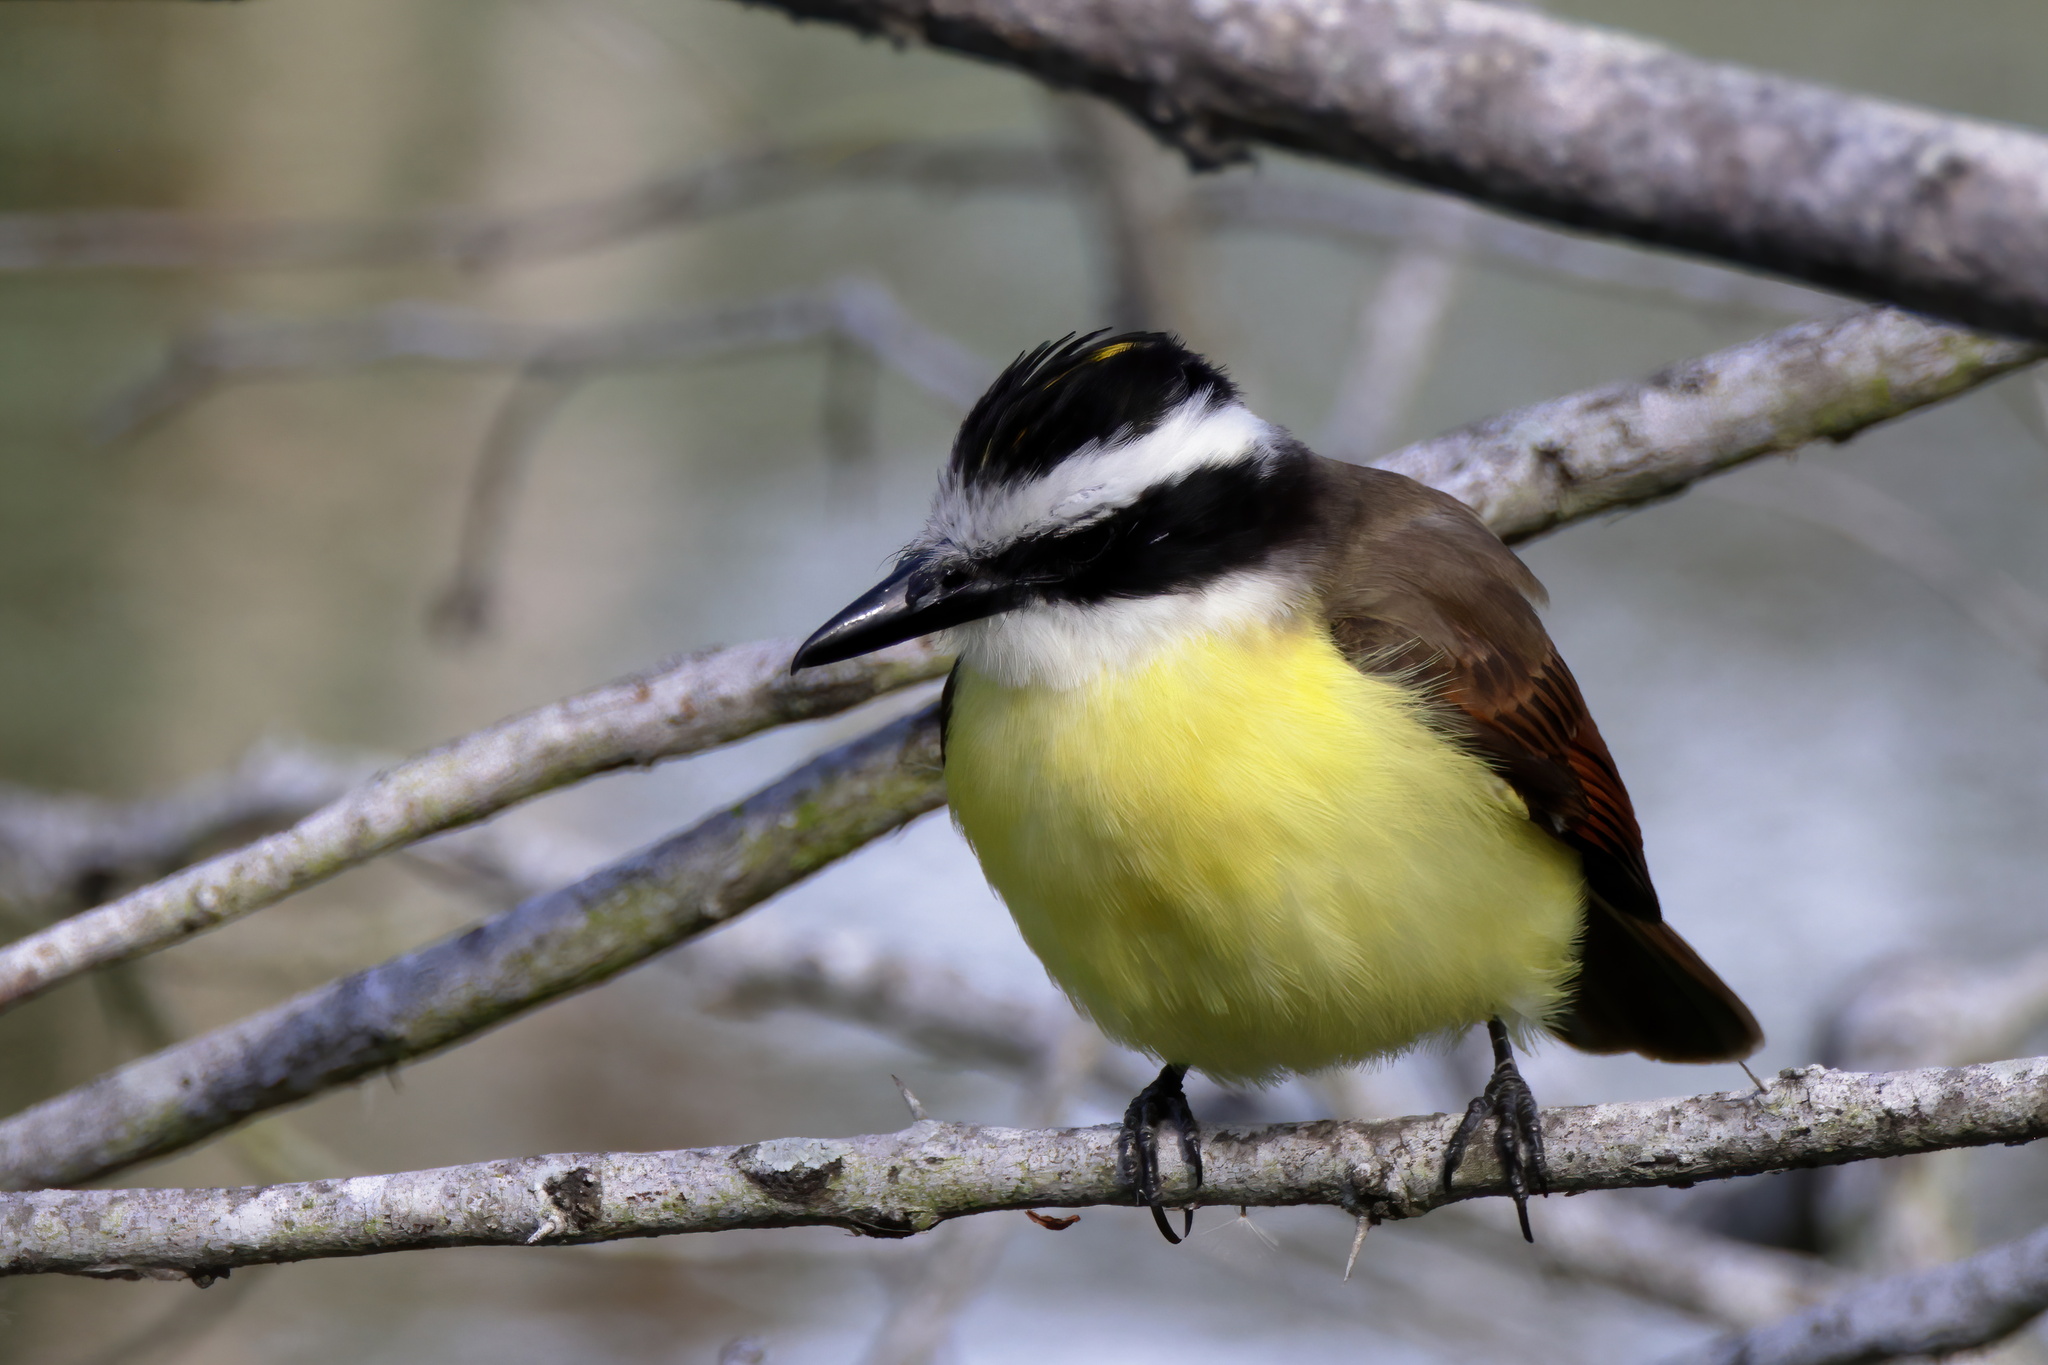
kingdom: Animalia
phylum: Chordata
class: Aves
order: Passeriformes
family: Tyrannidae
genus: Pitangus
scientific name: Pitangus sulphuratus
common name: Great kiskadee
